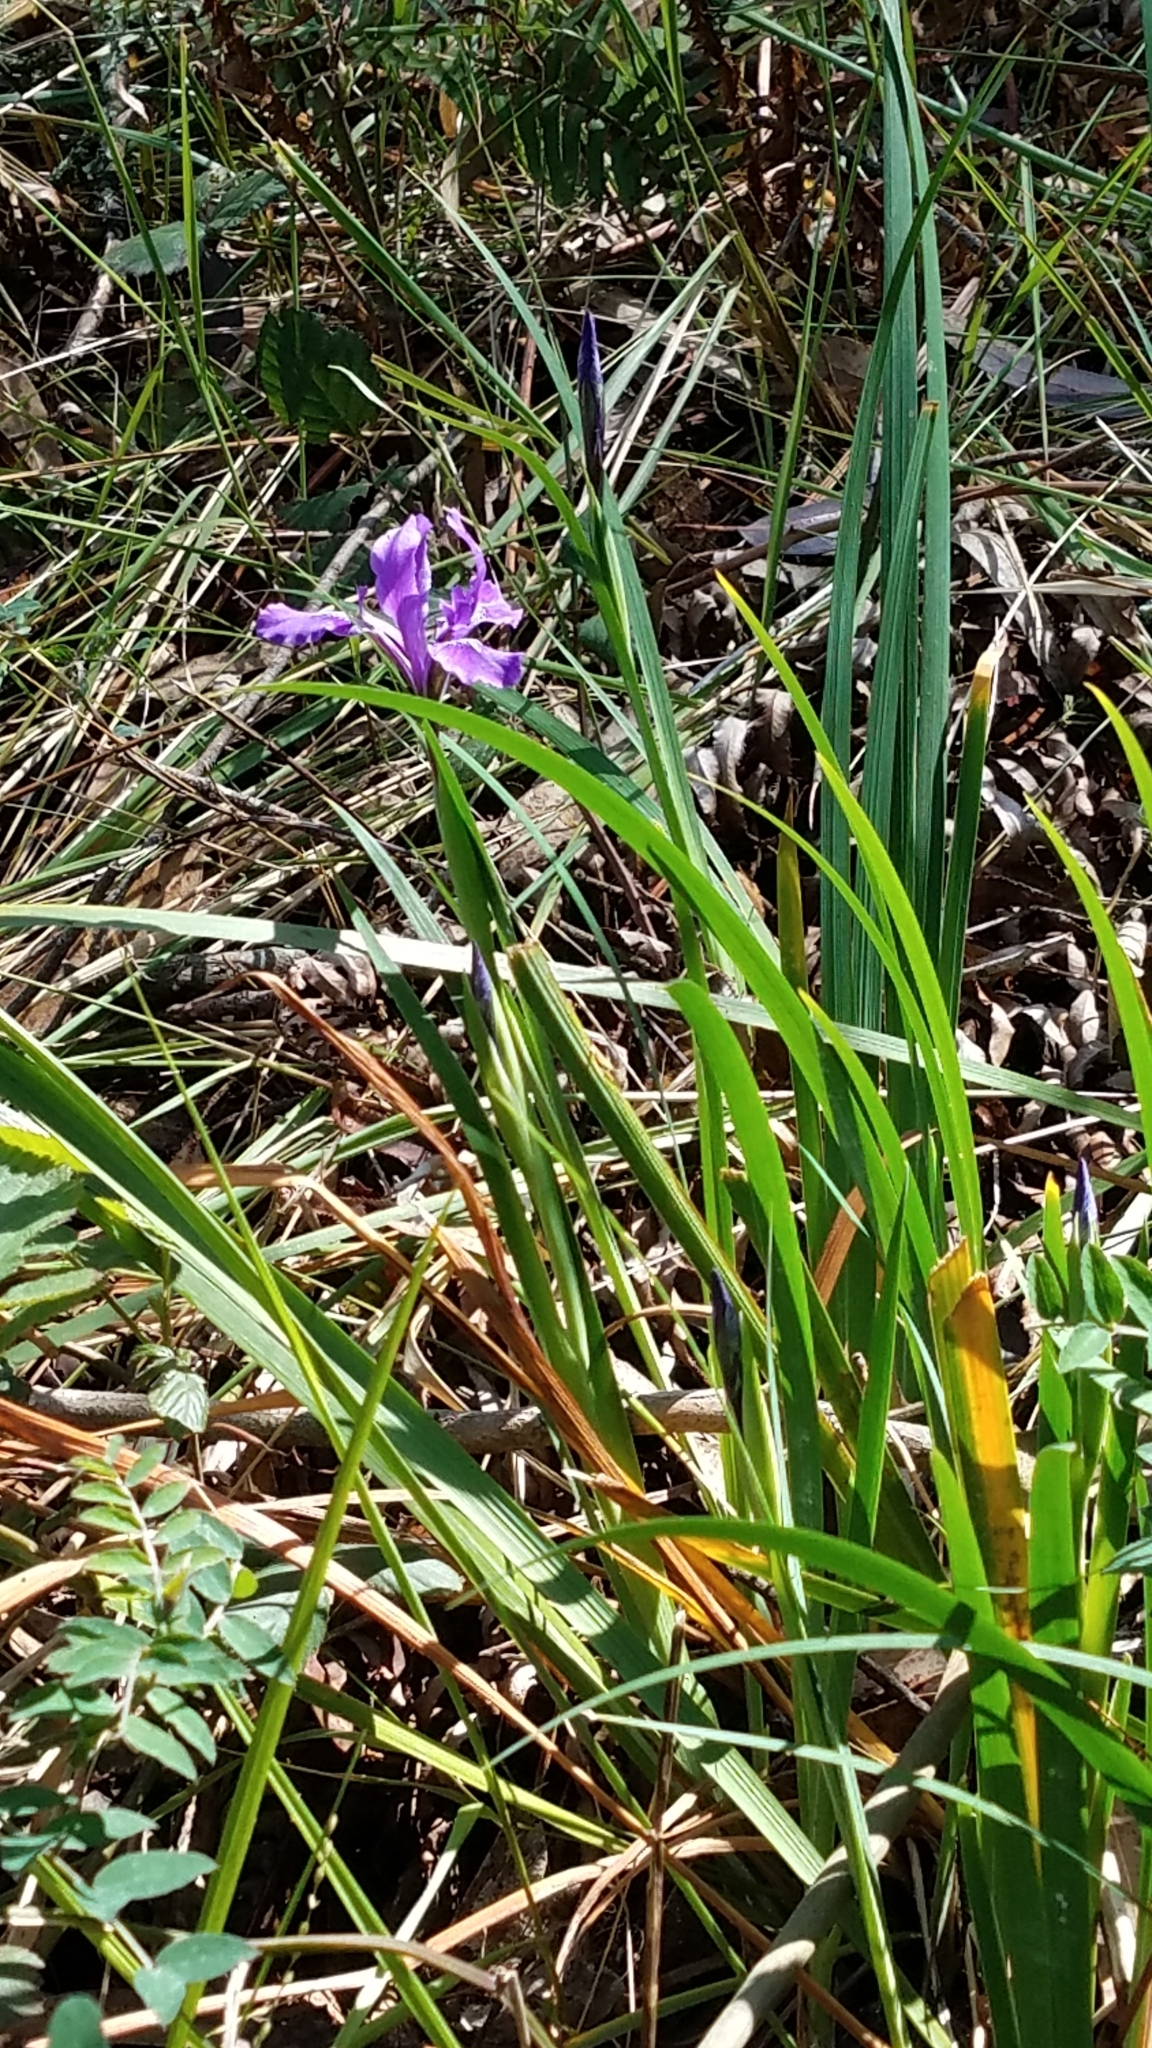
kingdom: Plantae
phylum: Tracheophyta
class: Liliopsida
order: Asparagales
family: Iridaceae
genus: Iris
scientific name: Iris douglasiana
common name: Marin iris
